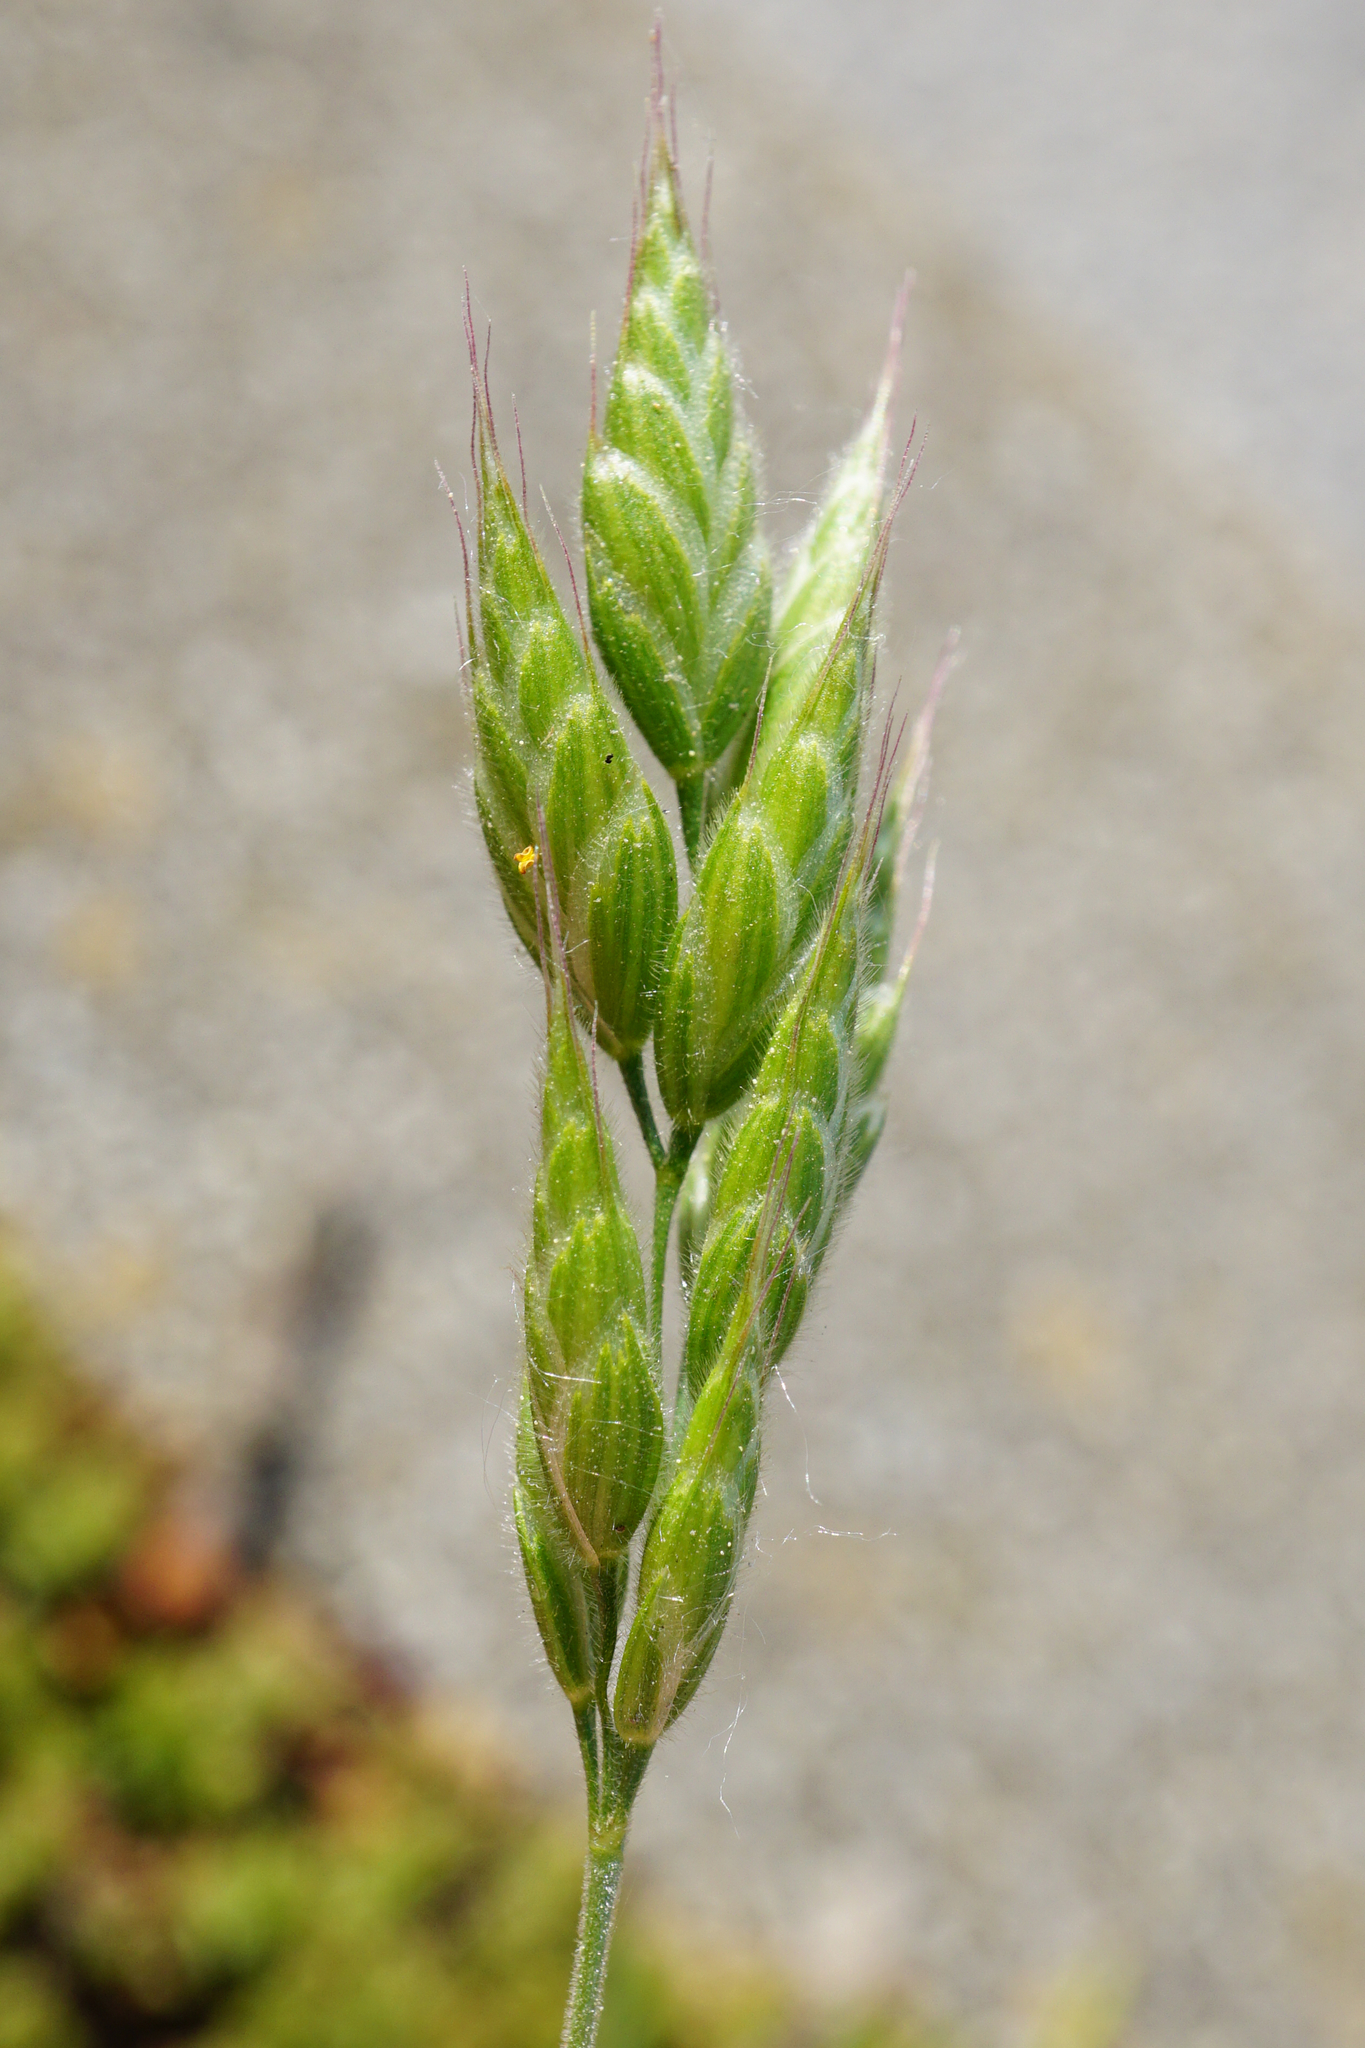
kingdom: Plantae
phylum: Tracheophyta
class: Liliopsida
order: Poales
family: Poaceae
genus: Bromus
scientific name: Bromus hordeaceus
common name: Soft brome
